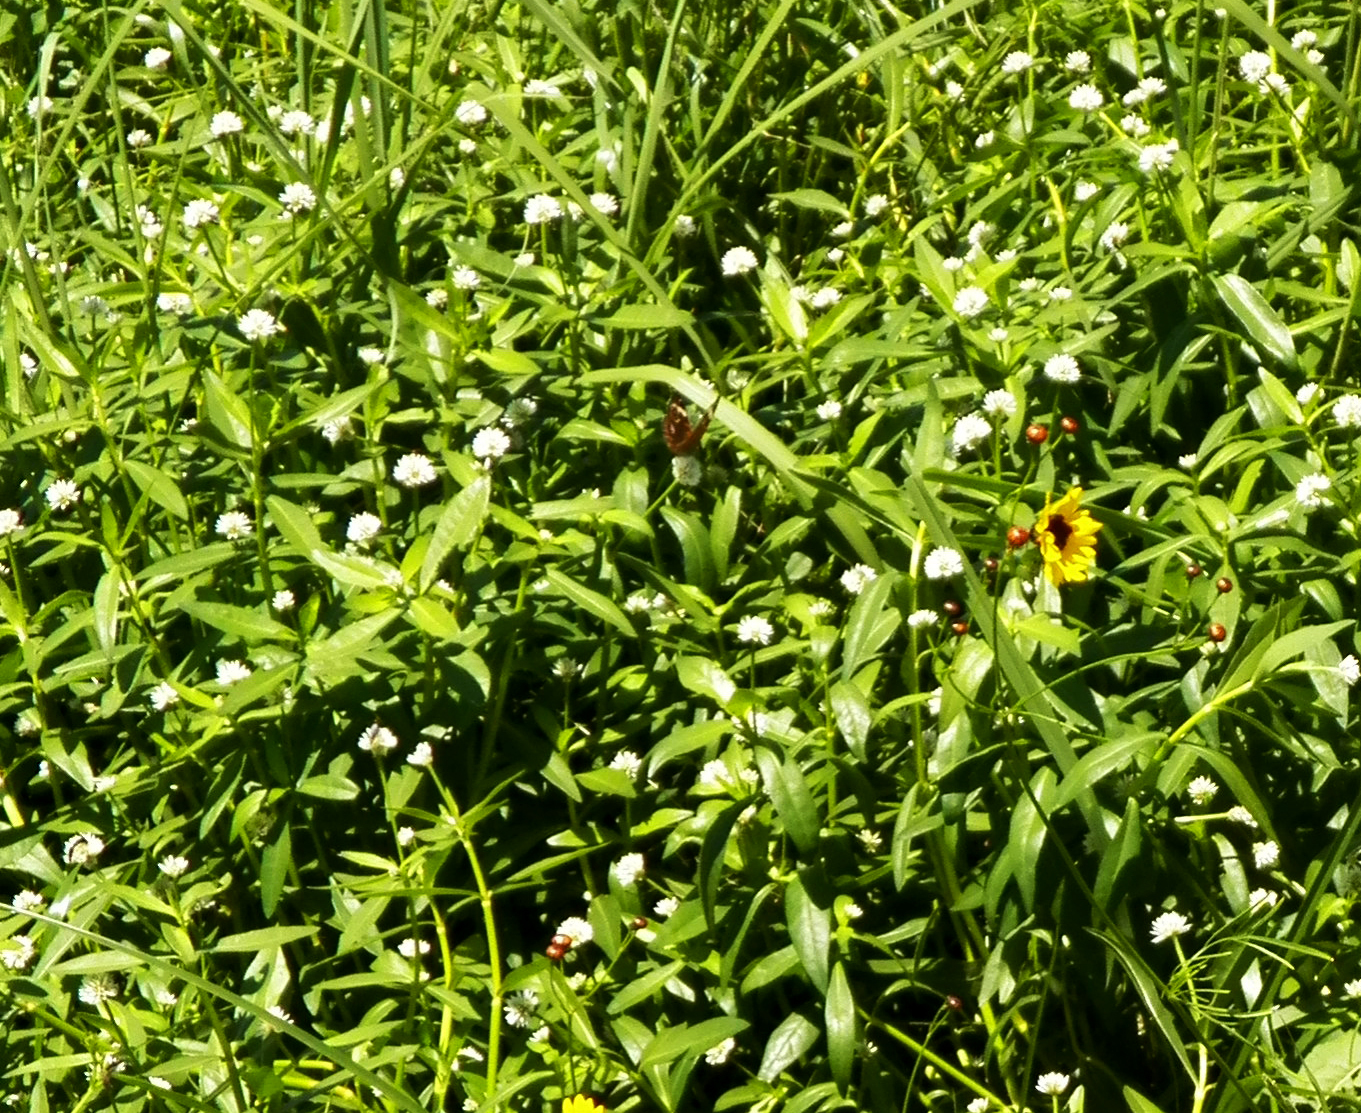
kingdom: Plantae
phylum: Tracheophyta
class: Magnoliopsida
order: Caryophyllales
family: Amaranthaceae
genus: Alternanthera
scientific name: Alternanthera philoxeroides
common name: Alligatorweed
